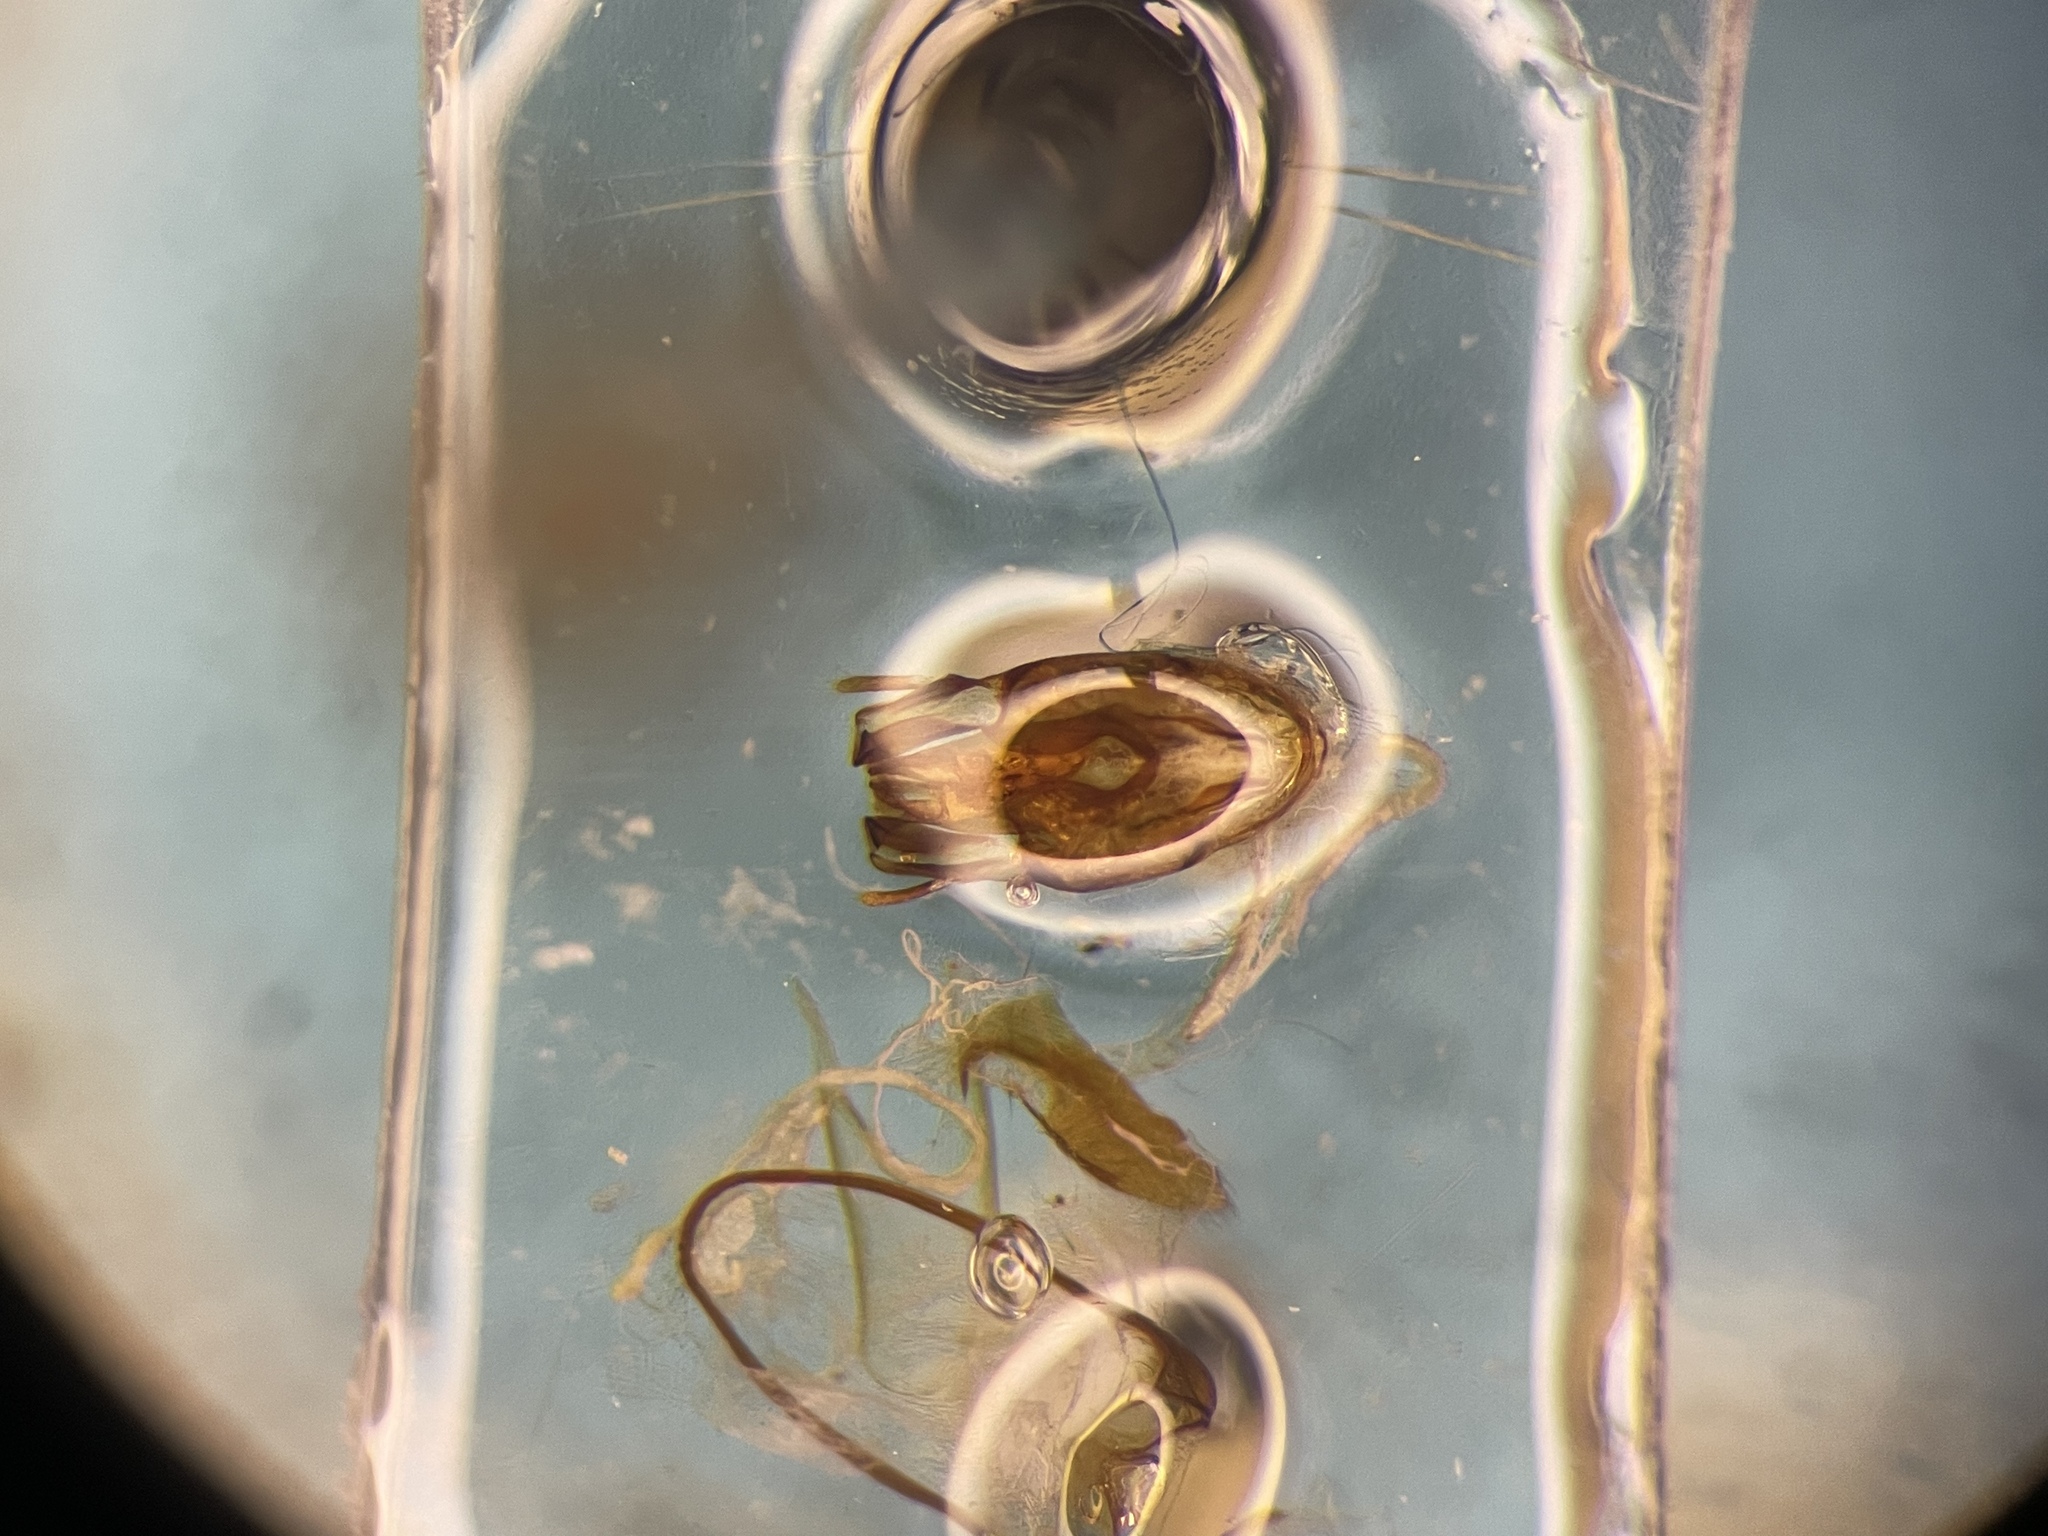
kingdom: Animalia
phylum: Arthropoda
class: Insecta
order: Coleoptera
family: Anobiidae
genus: Oligomerus
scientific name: Oligomerus obtusus
